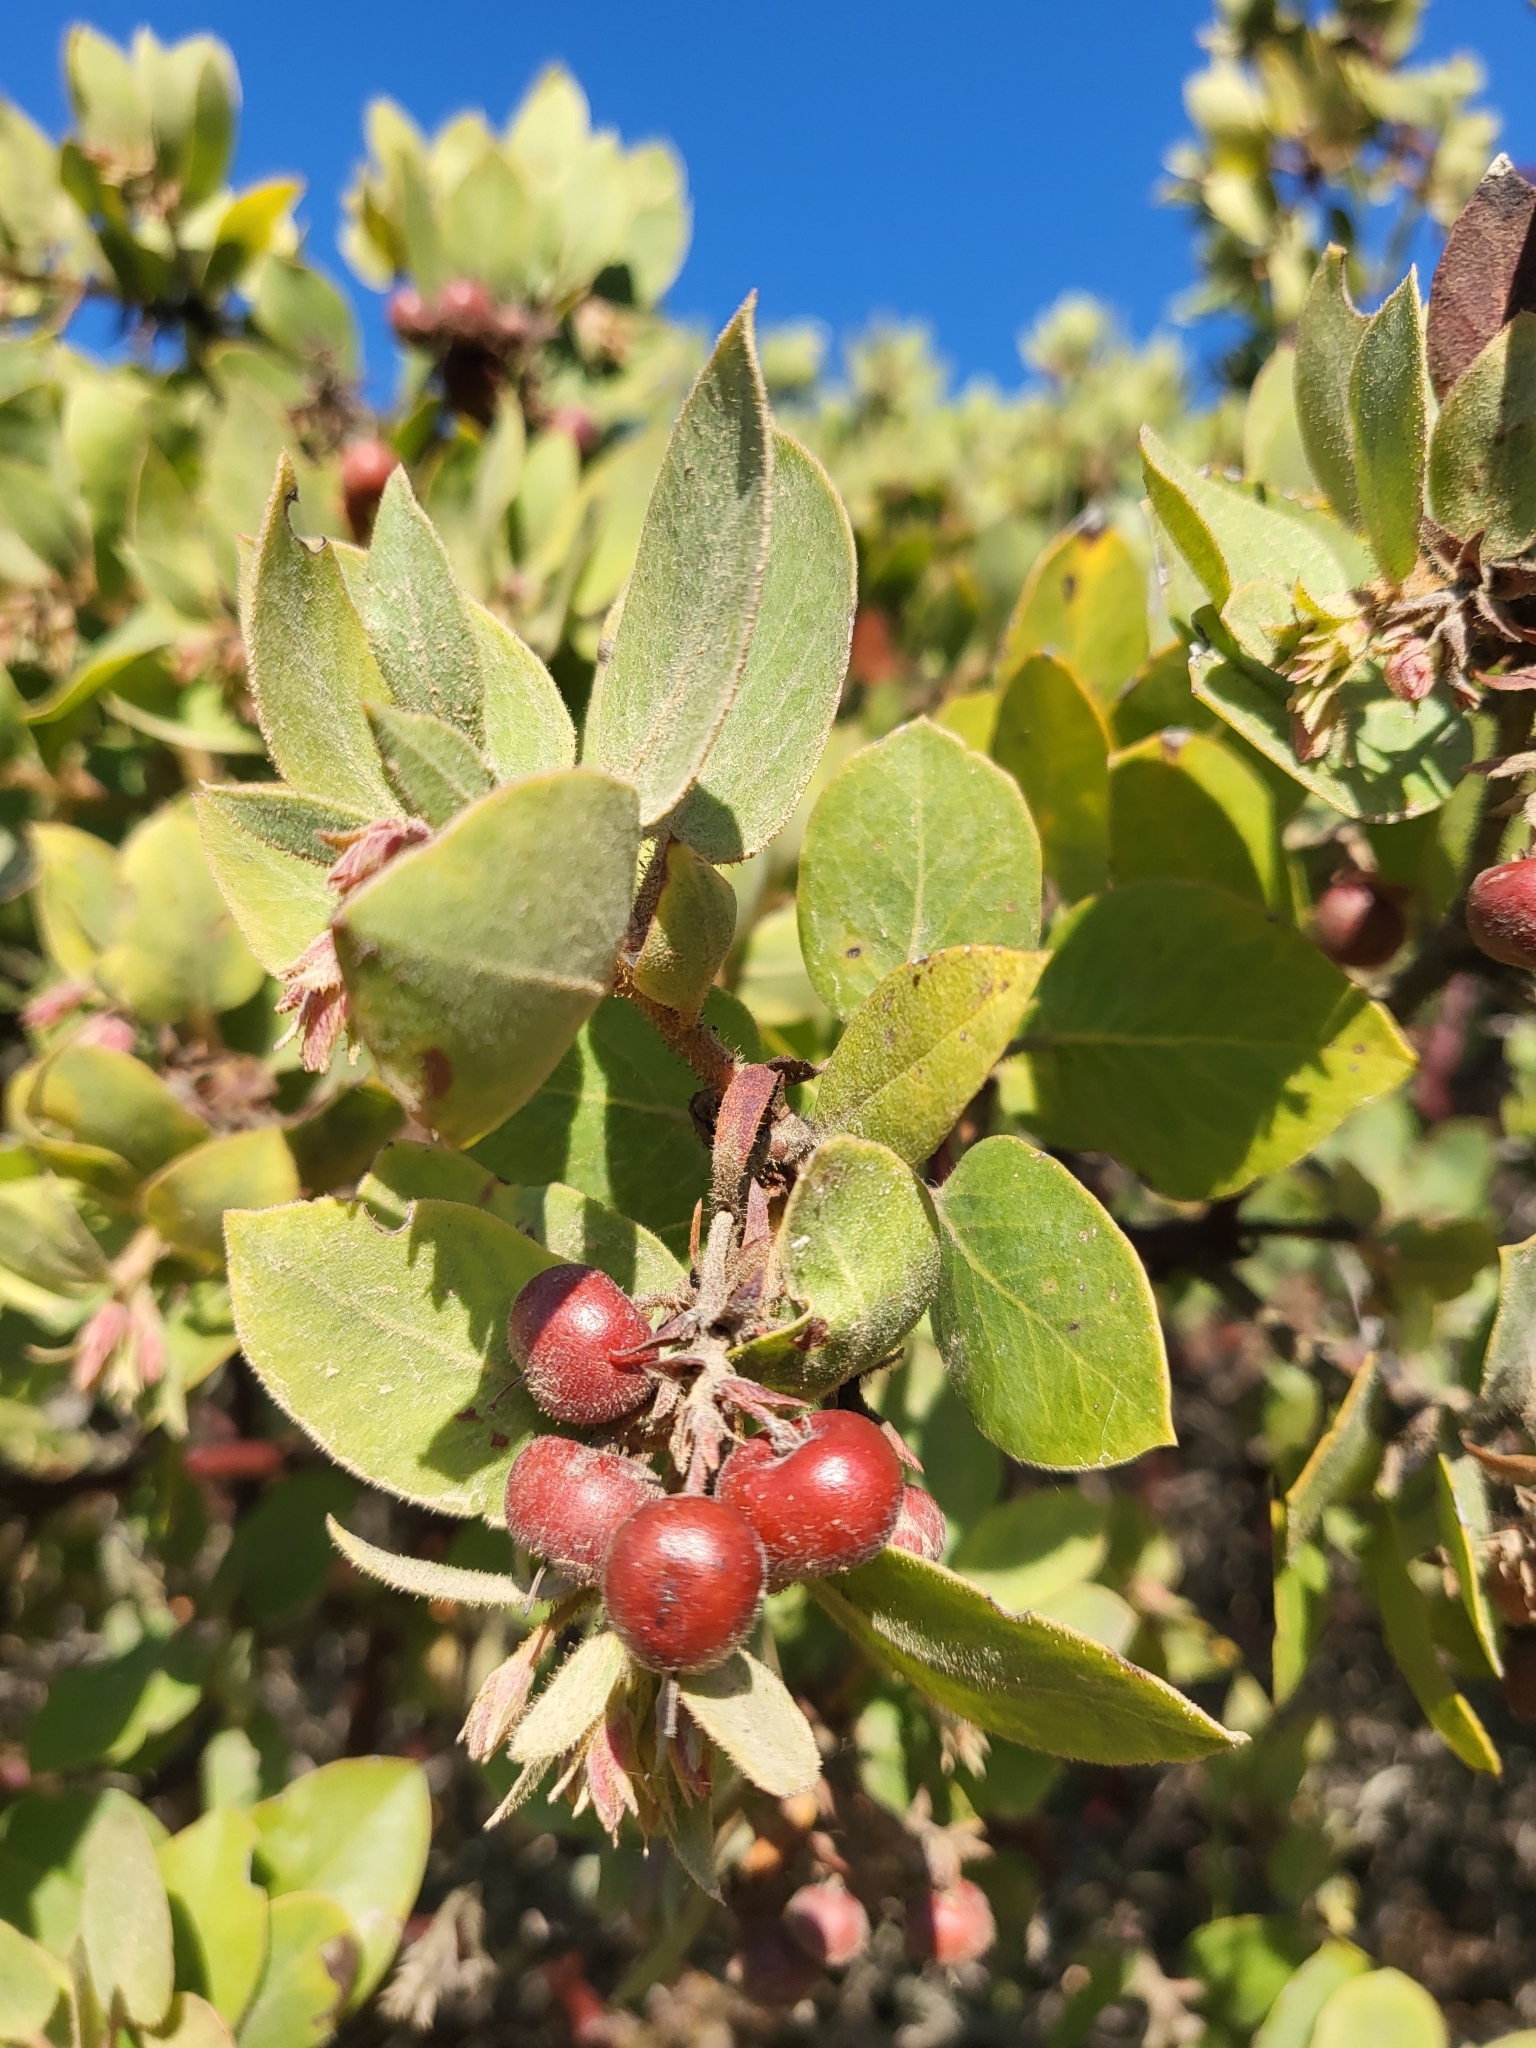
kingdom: Plantae
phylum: Tracheophyta
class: Magnoliopsida
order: Ericales
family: Ericaceae
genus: Arctostaphylos
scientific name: Arctostaphylos glandulosa
